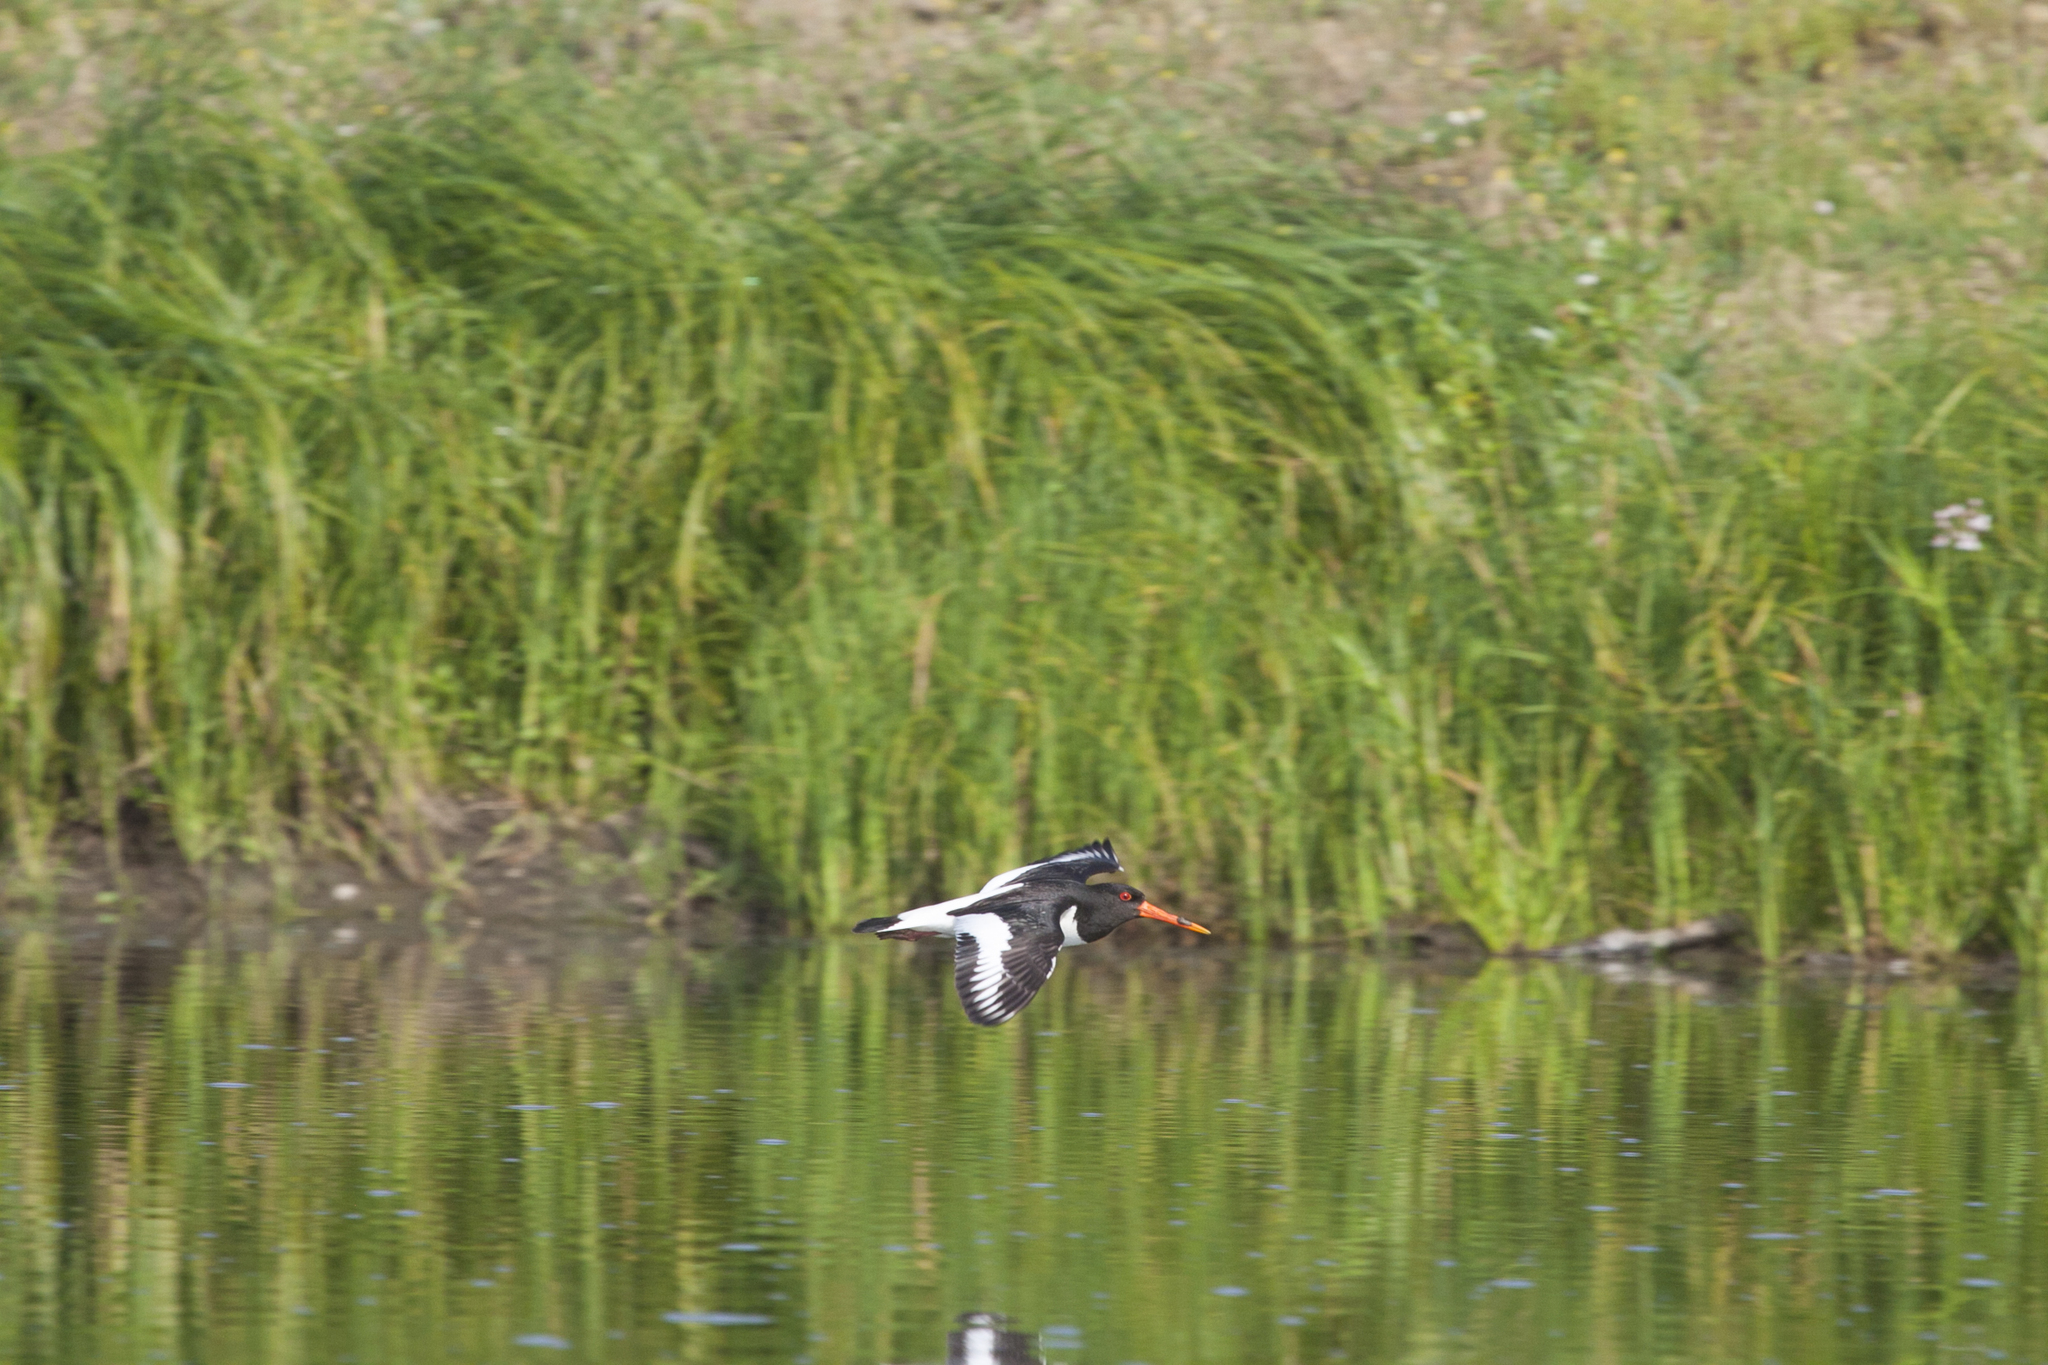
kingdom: Animalia
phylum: Chordata
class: Aves
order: Charadriiformes
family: Haematopodidae
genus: Haematopus
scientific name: Haematopus ostralegus
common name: Eurasian oystercatcher
